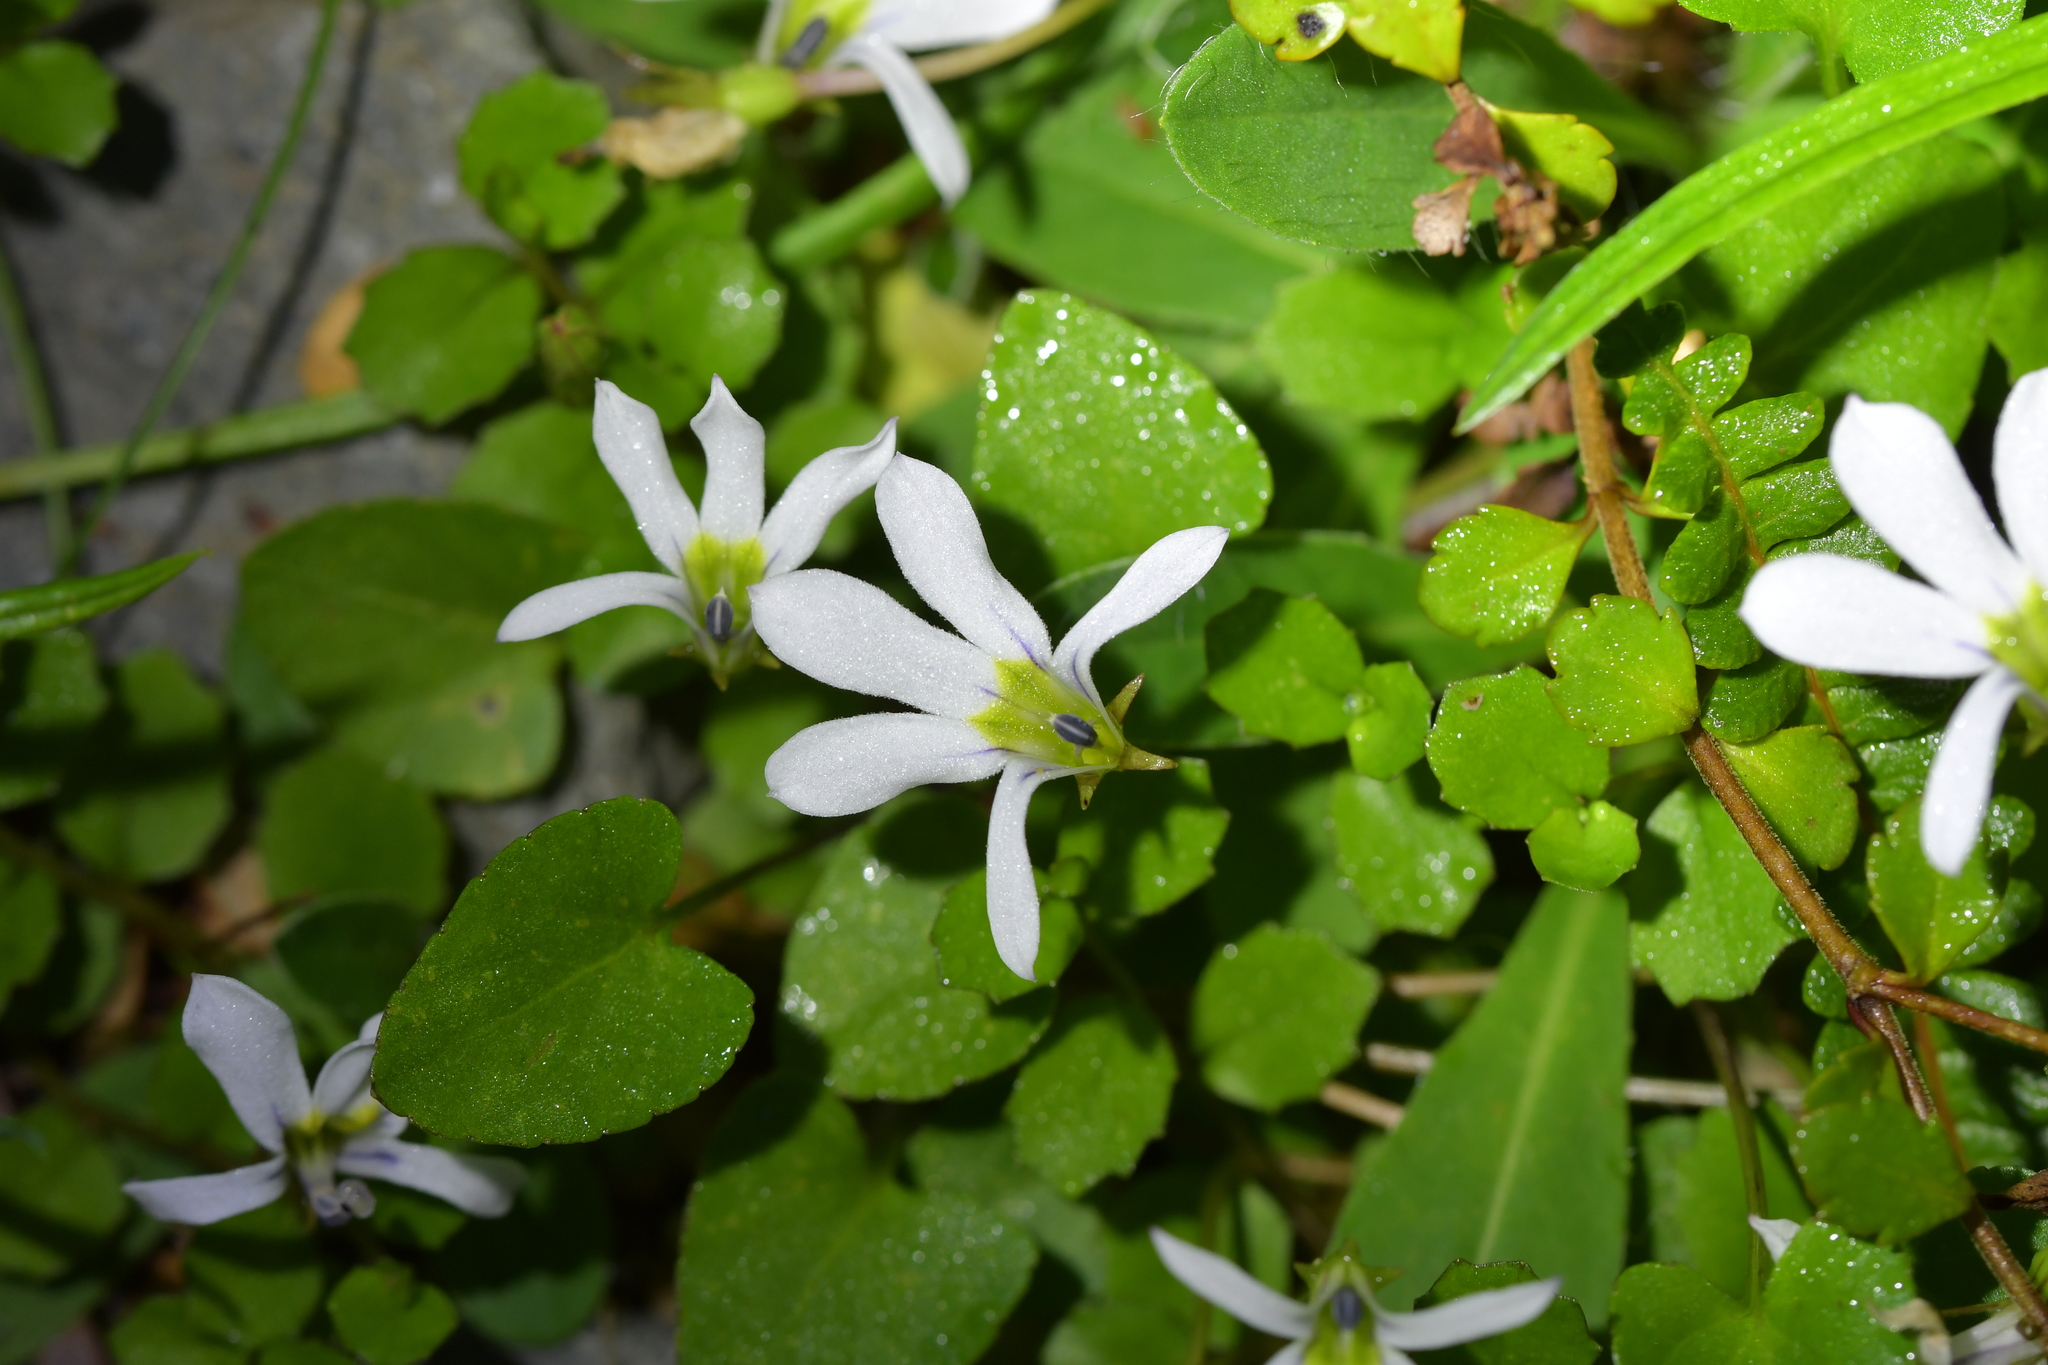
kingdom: Plantae
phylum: Tracheophyta
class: Magnoliopsida
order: Asterales
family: Campanulaceae
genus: Lobelia
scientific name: Lobelia angulata
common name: Lawn lobelia
